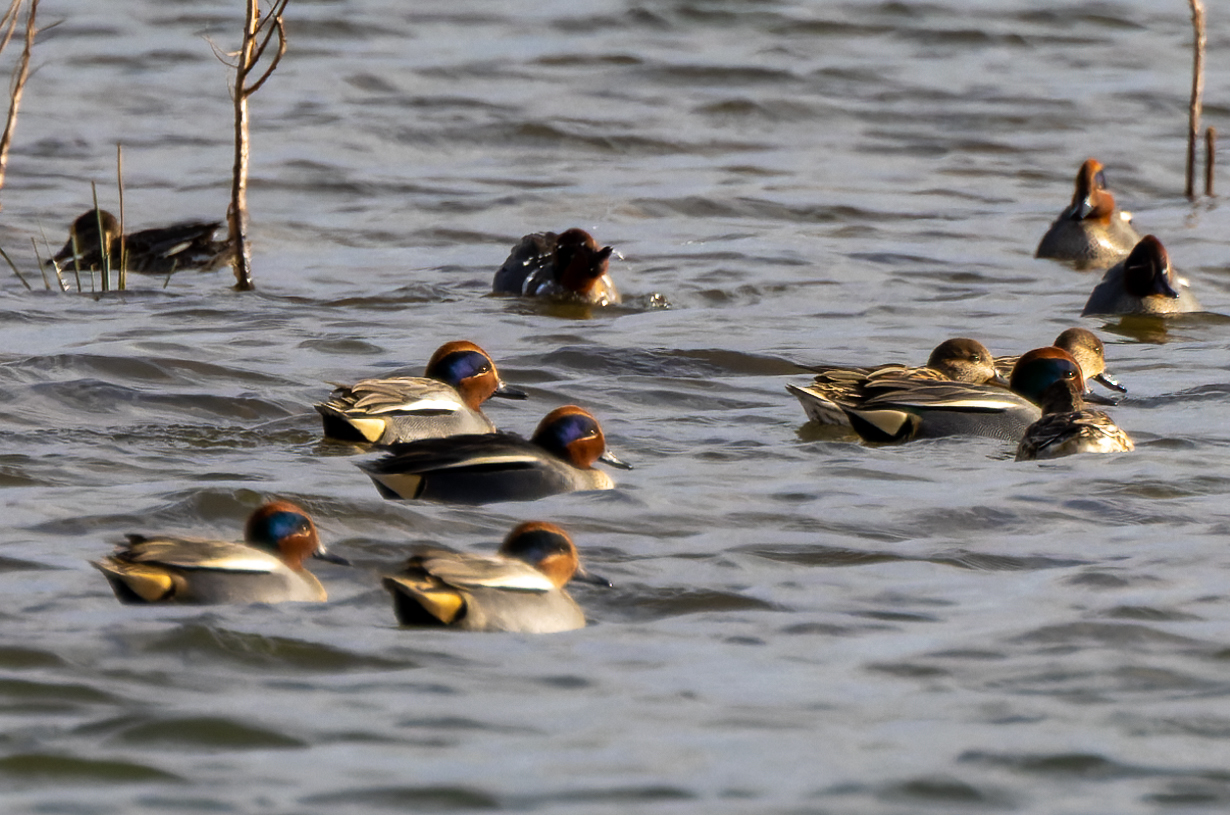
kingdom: Animalia
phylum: Chordata
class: Aves
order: Anseriformes
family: Anatidae
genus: Anas
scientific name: Anas carolinensis
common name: Green-winged teal
